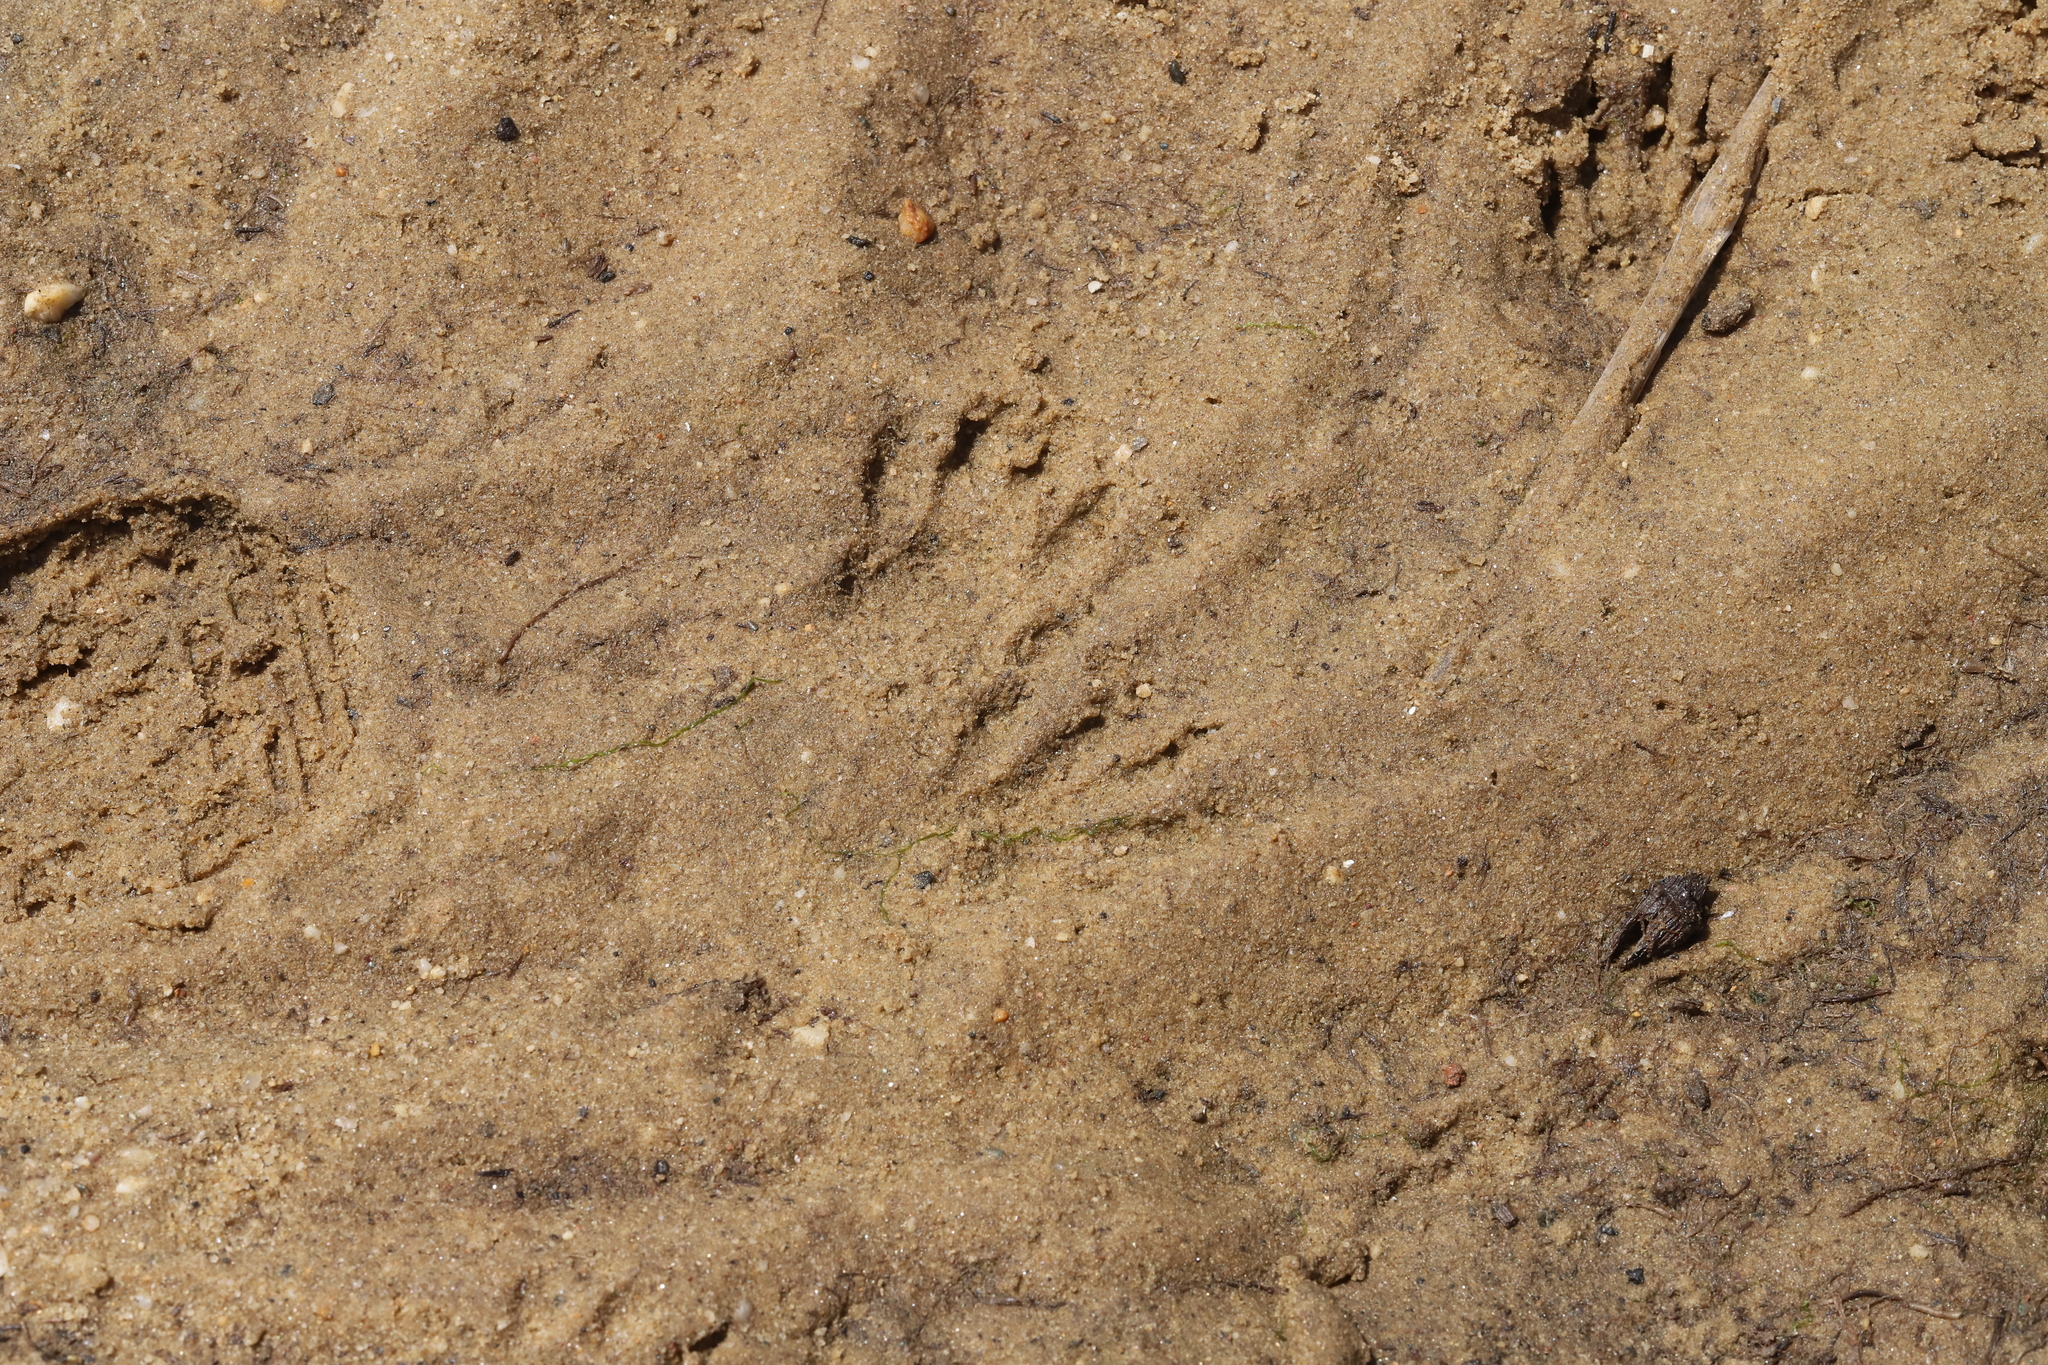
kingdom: Animalia
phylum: Chordata
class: Mammalia
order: Carnivora
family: Procyonidae
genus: Procyon
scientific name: Procyon lotor
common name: Raccoon
